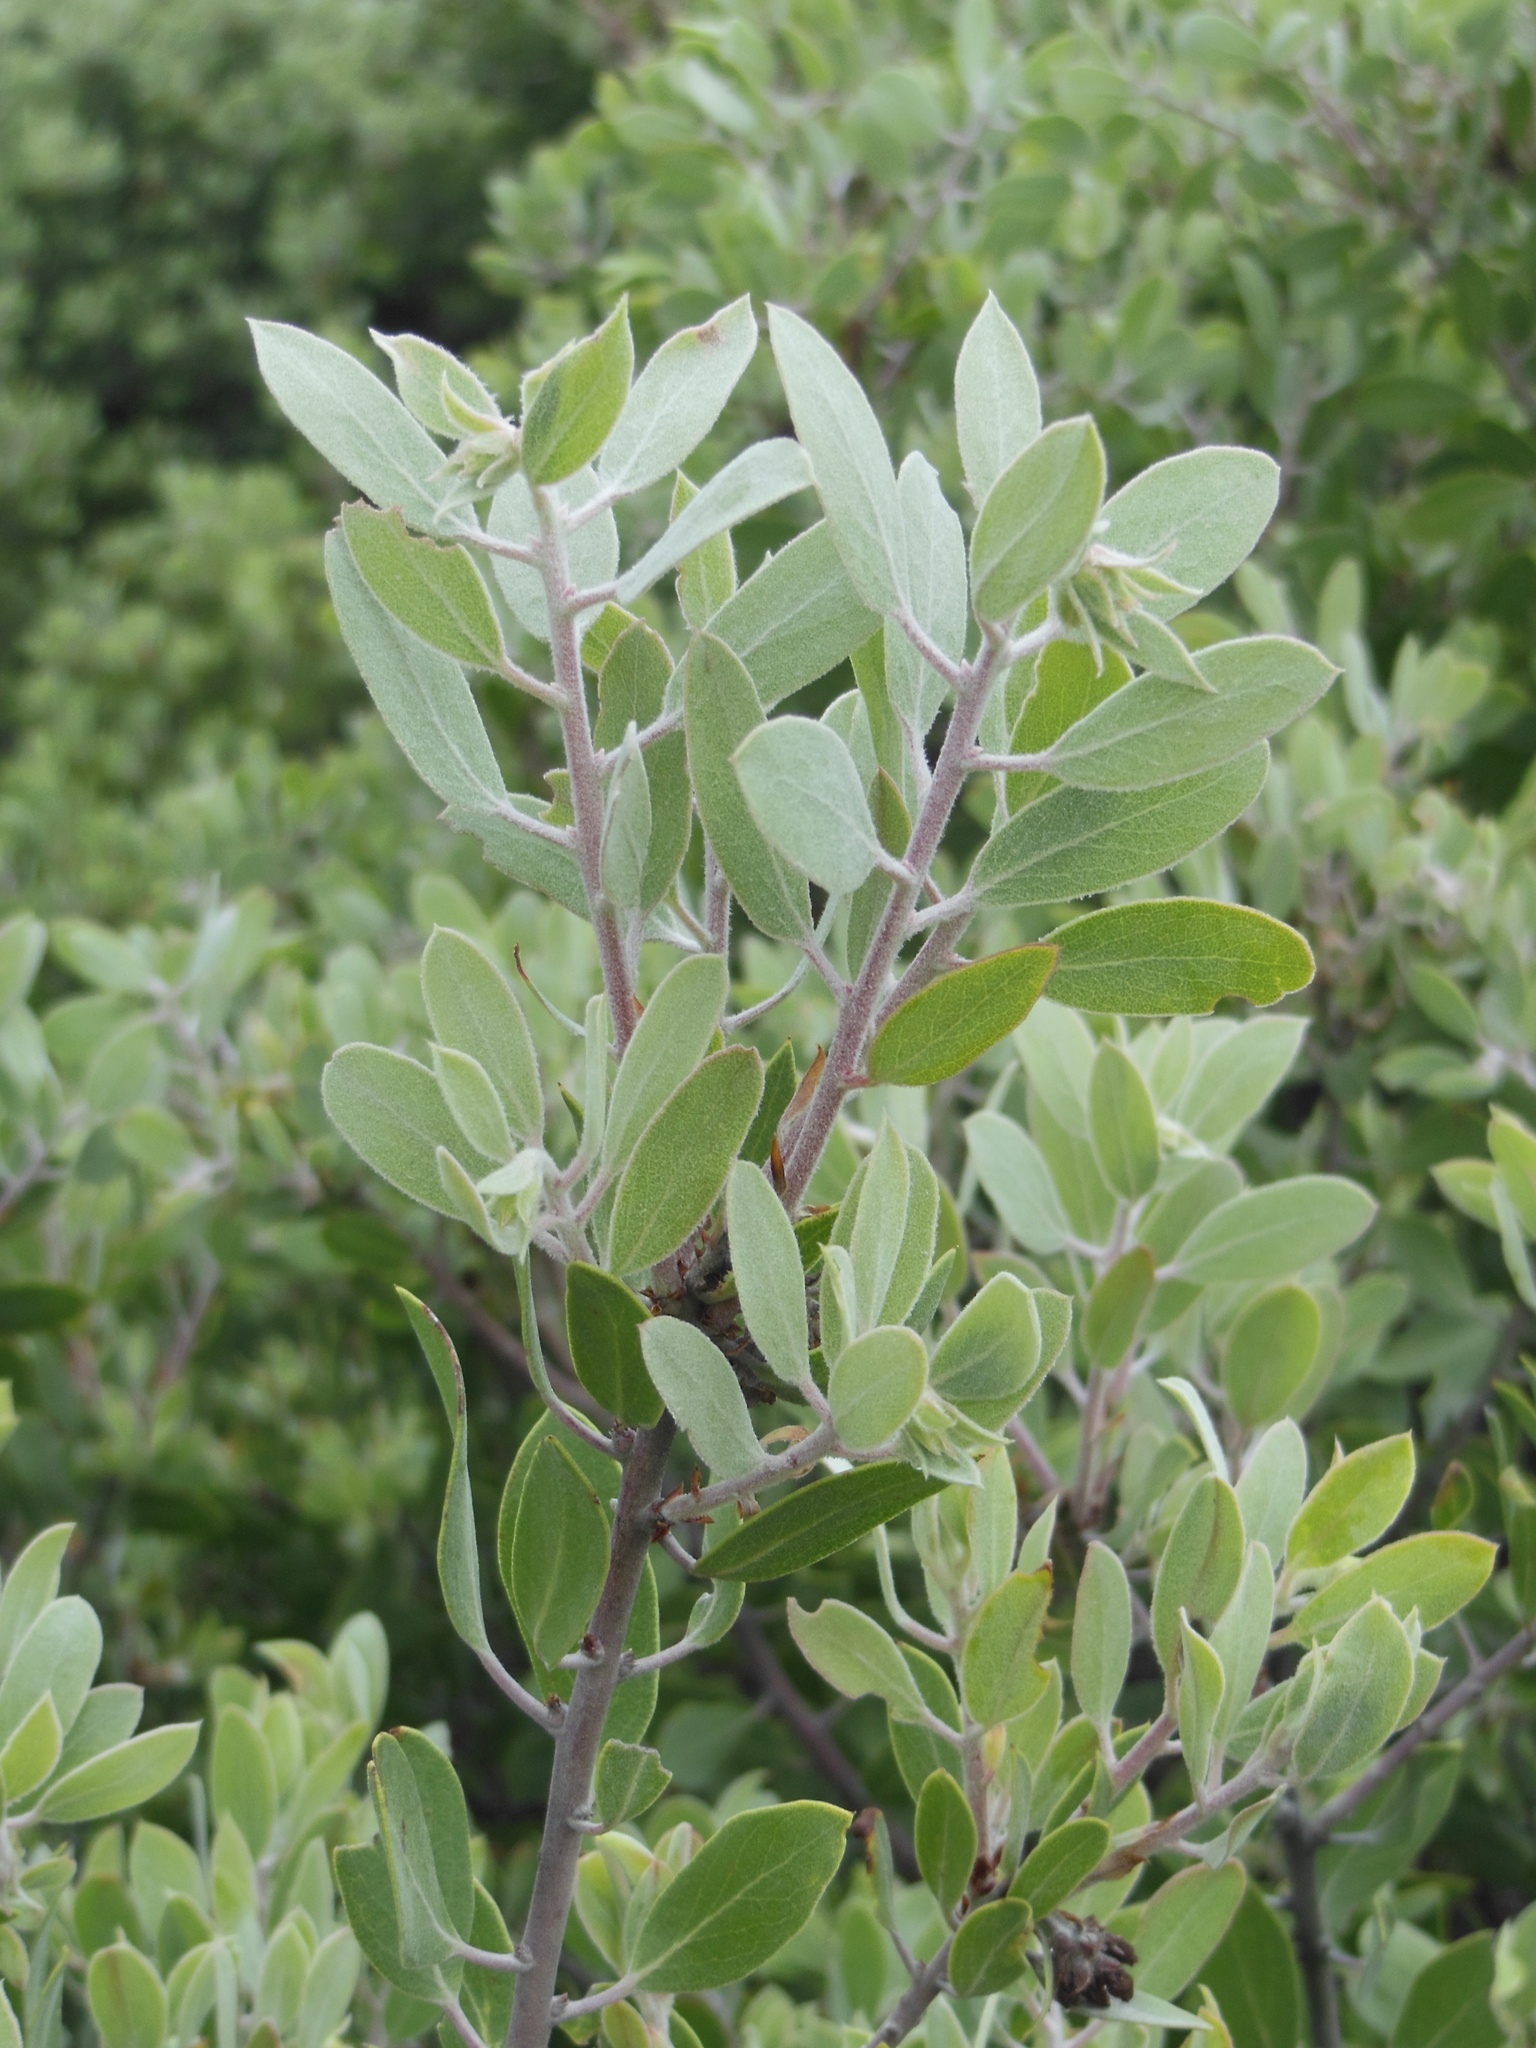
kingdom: Plantae
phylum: Tracheophyta
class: Magnoliopsida
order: Ericales
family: Ericaceae
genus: Arctostaphylos
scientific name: Arctostaphylos pungens
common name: Mexican manzanita
